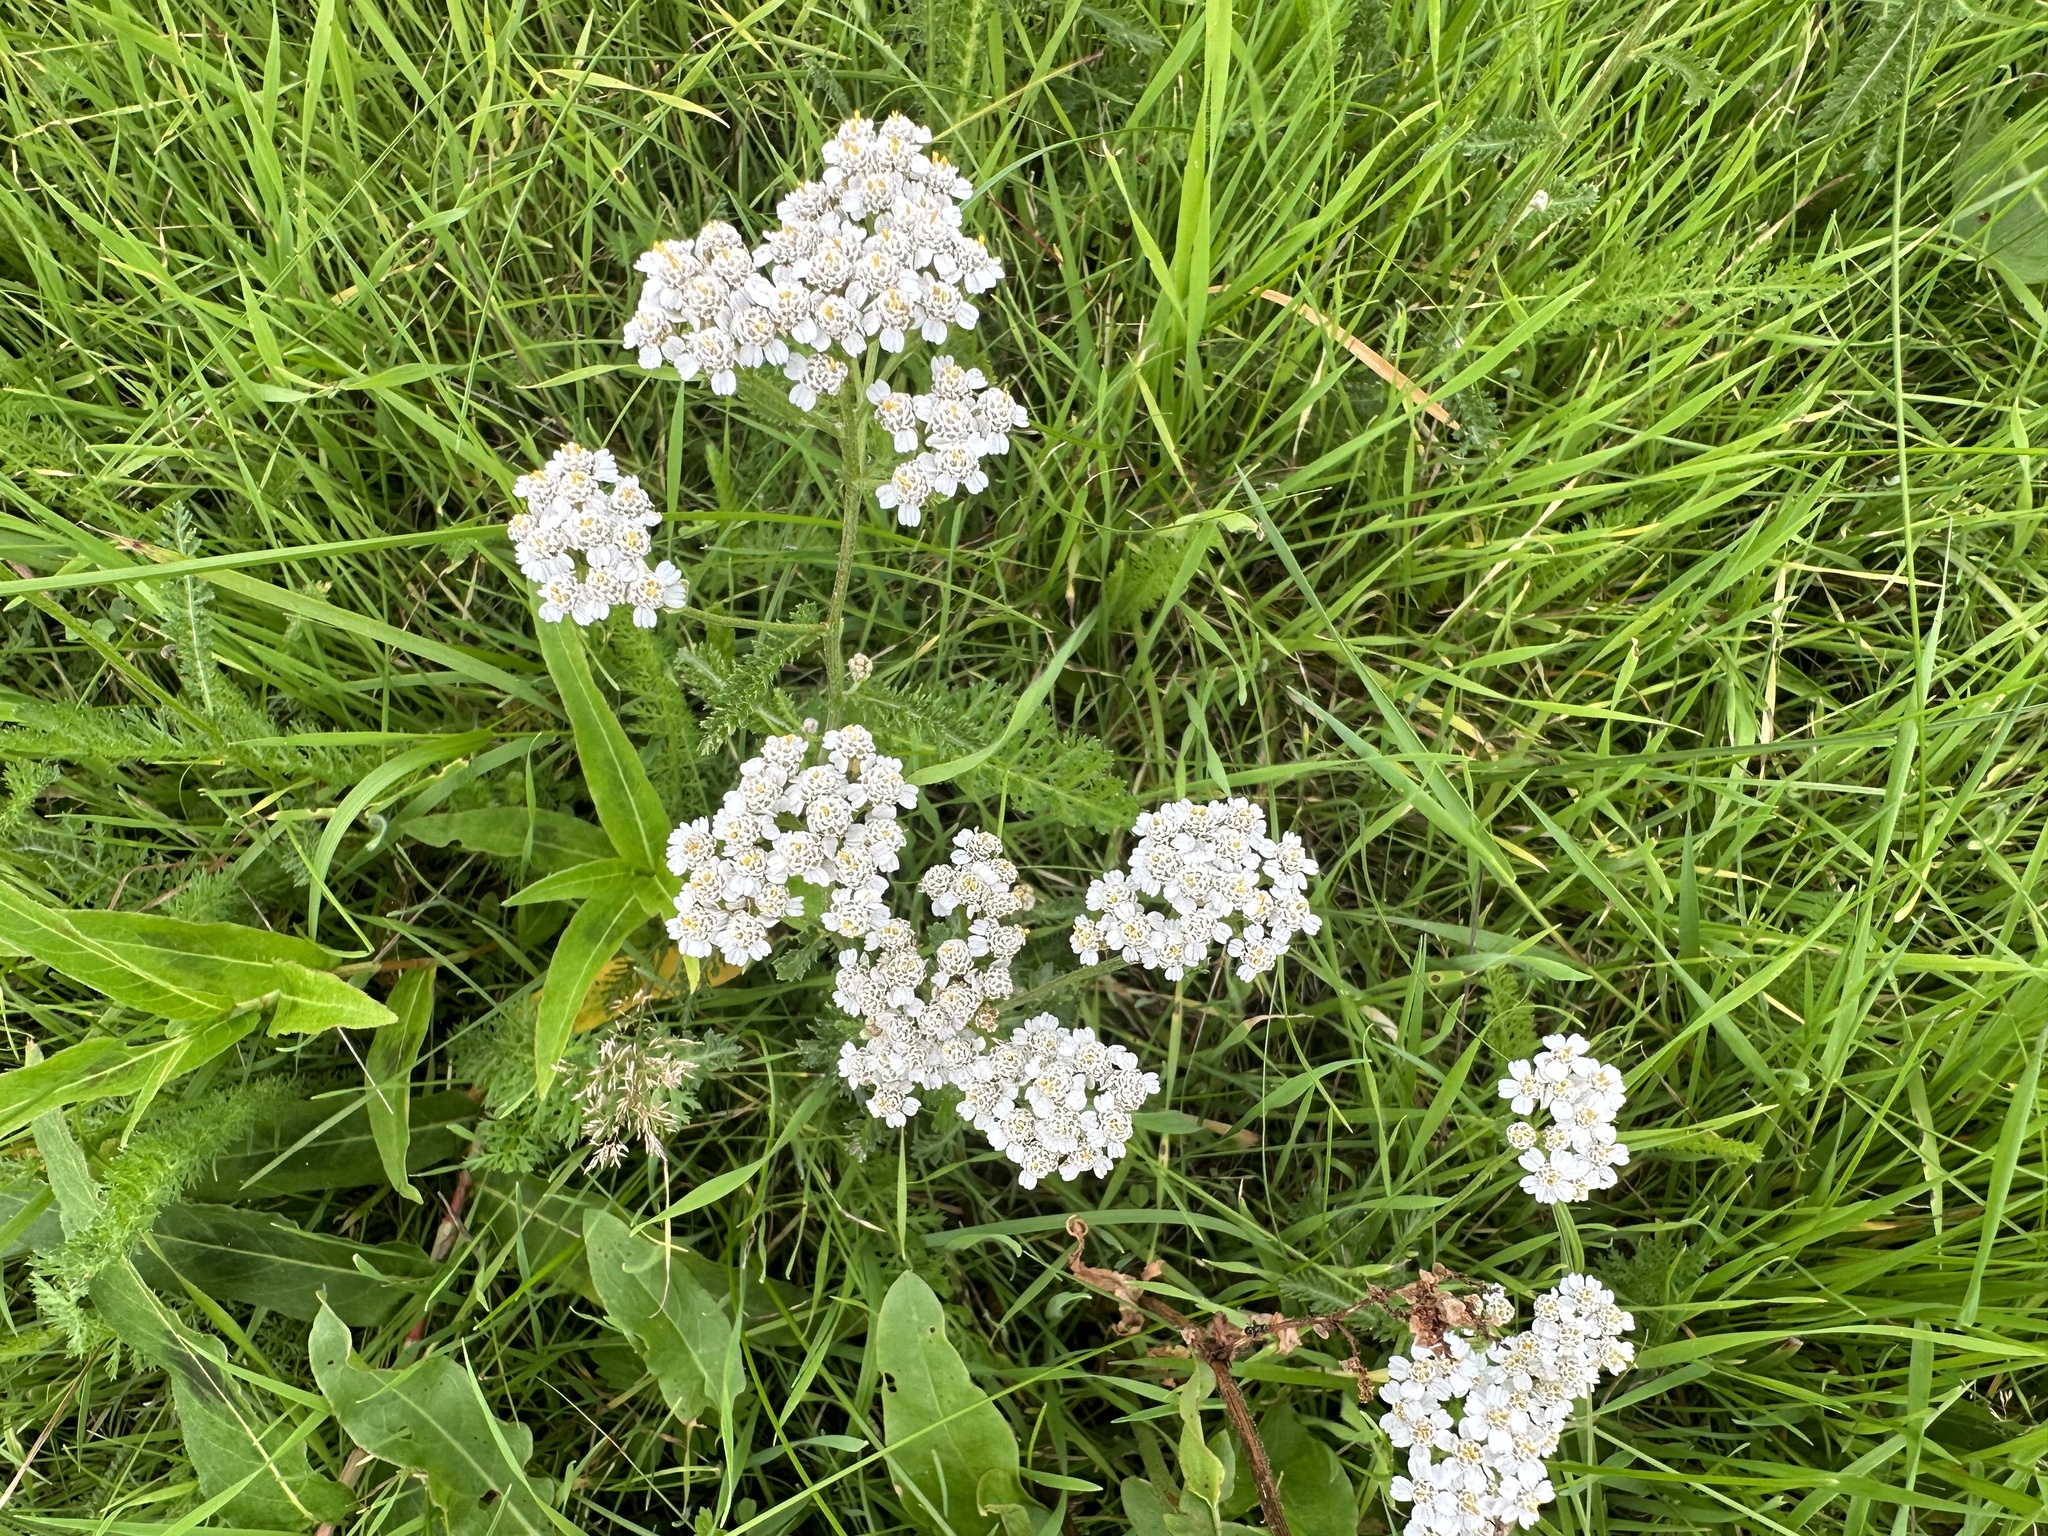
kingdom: Plantae
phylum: Tracheophyta
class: Magnoliopsida
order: Asterales
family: Asteraceae
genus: Achillea
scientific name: Achillea millefolium
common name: Yarrow
